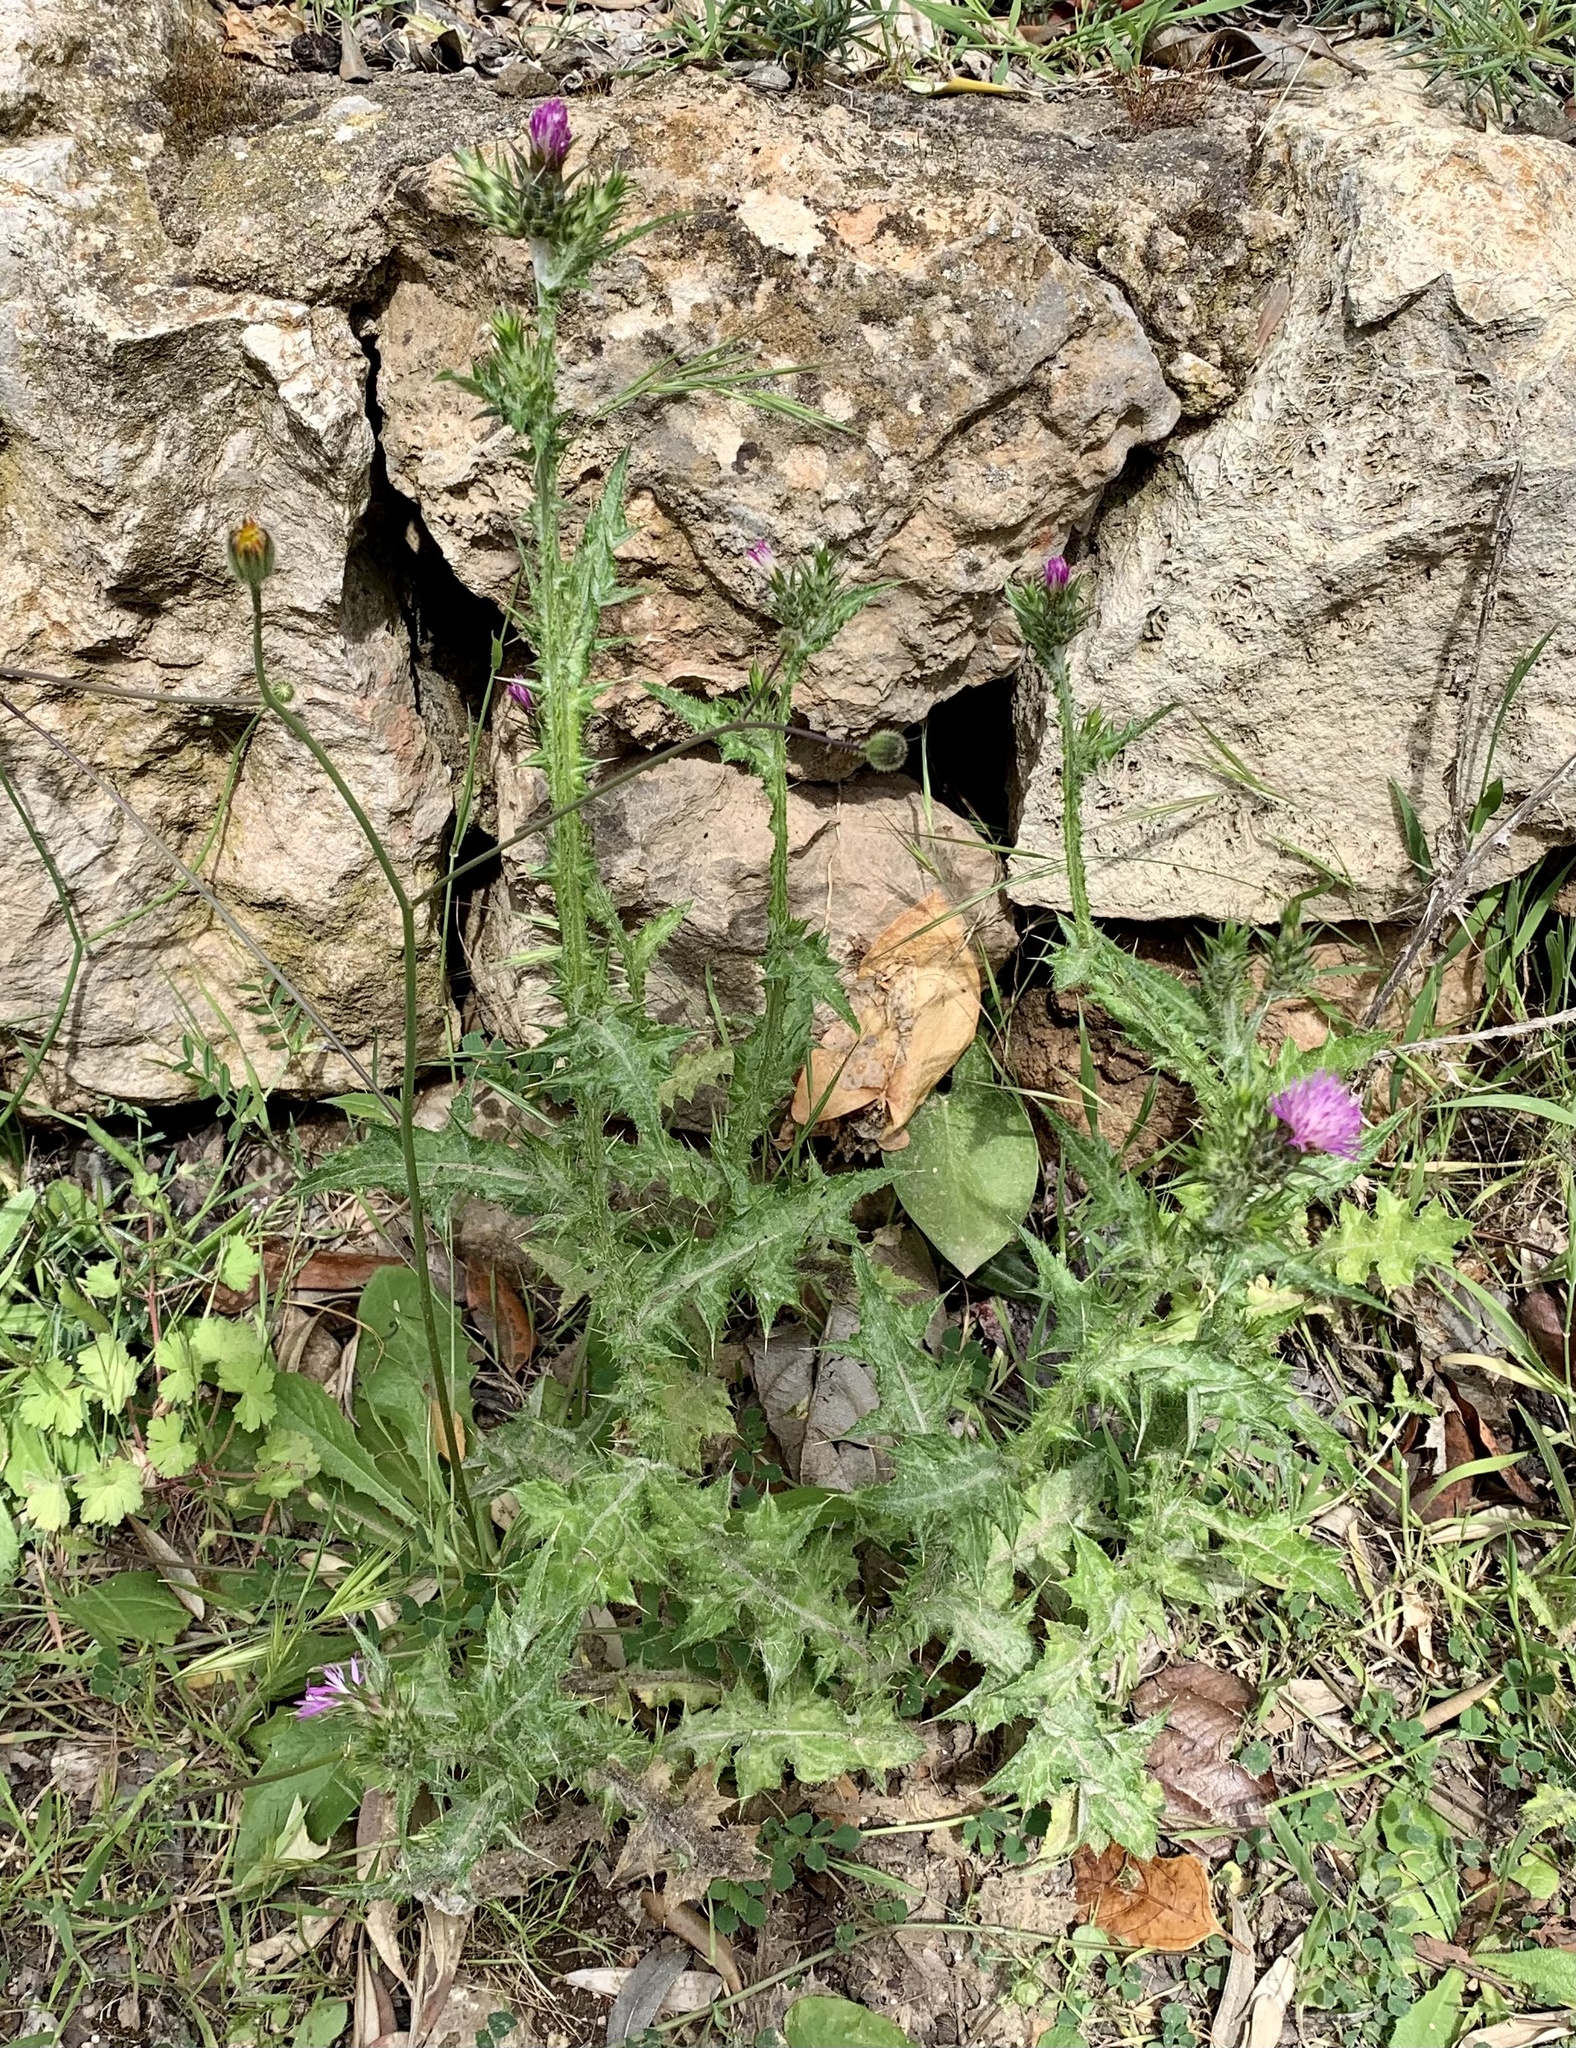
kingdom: Plantae
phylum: Tracheophyta
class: Magnoliopsida
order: Asterales
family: Asteraceae
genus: Carduus
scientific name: Carduus pycnocephalus
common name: Plymouth thistle
